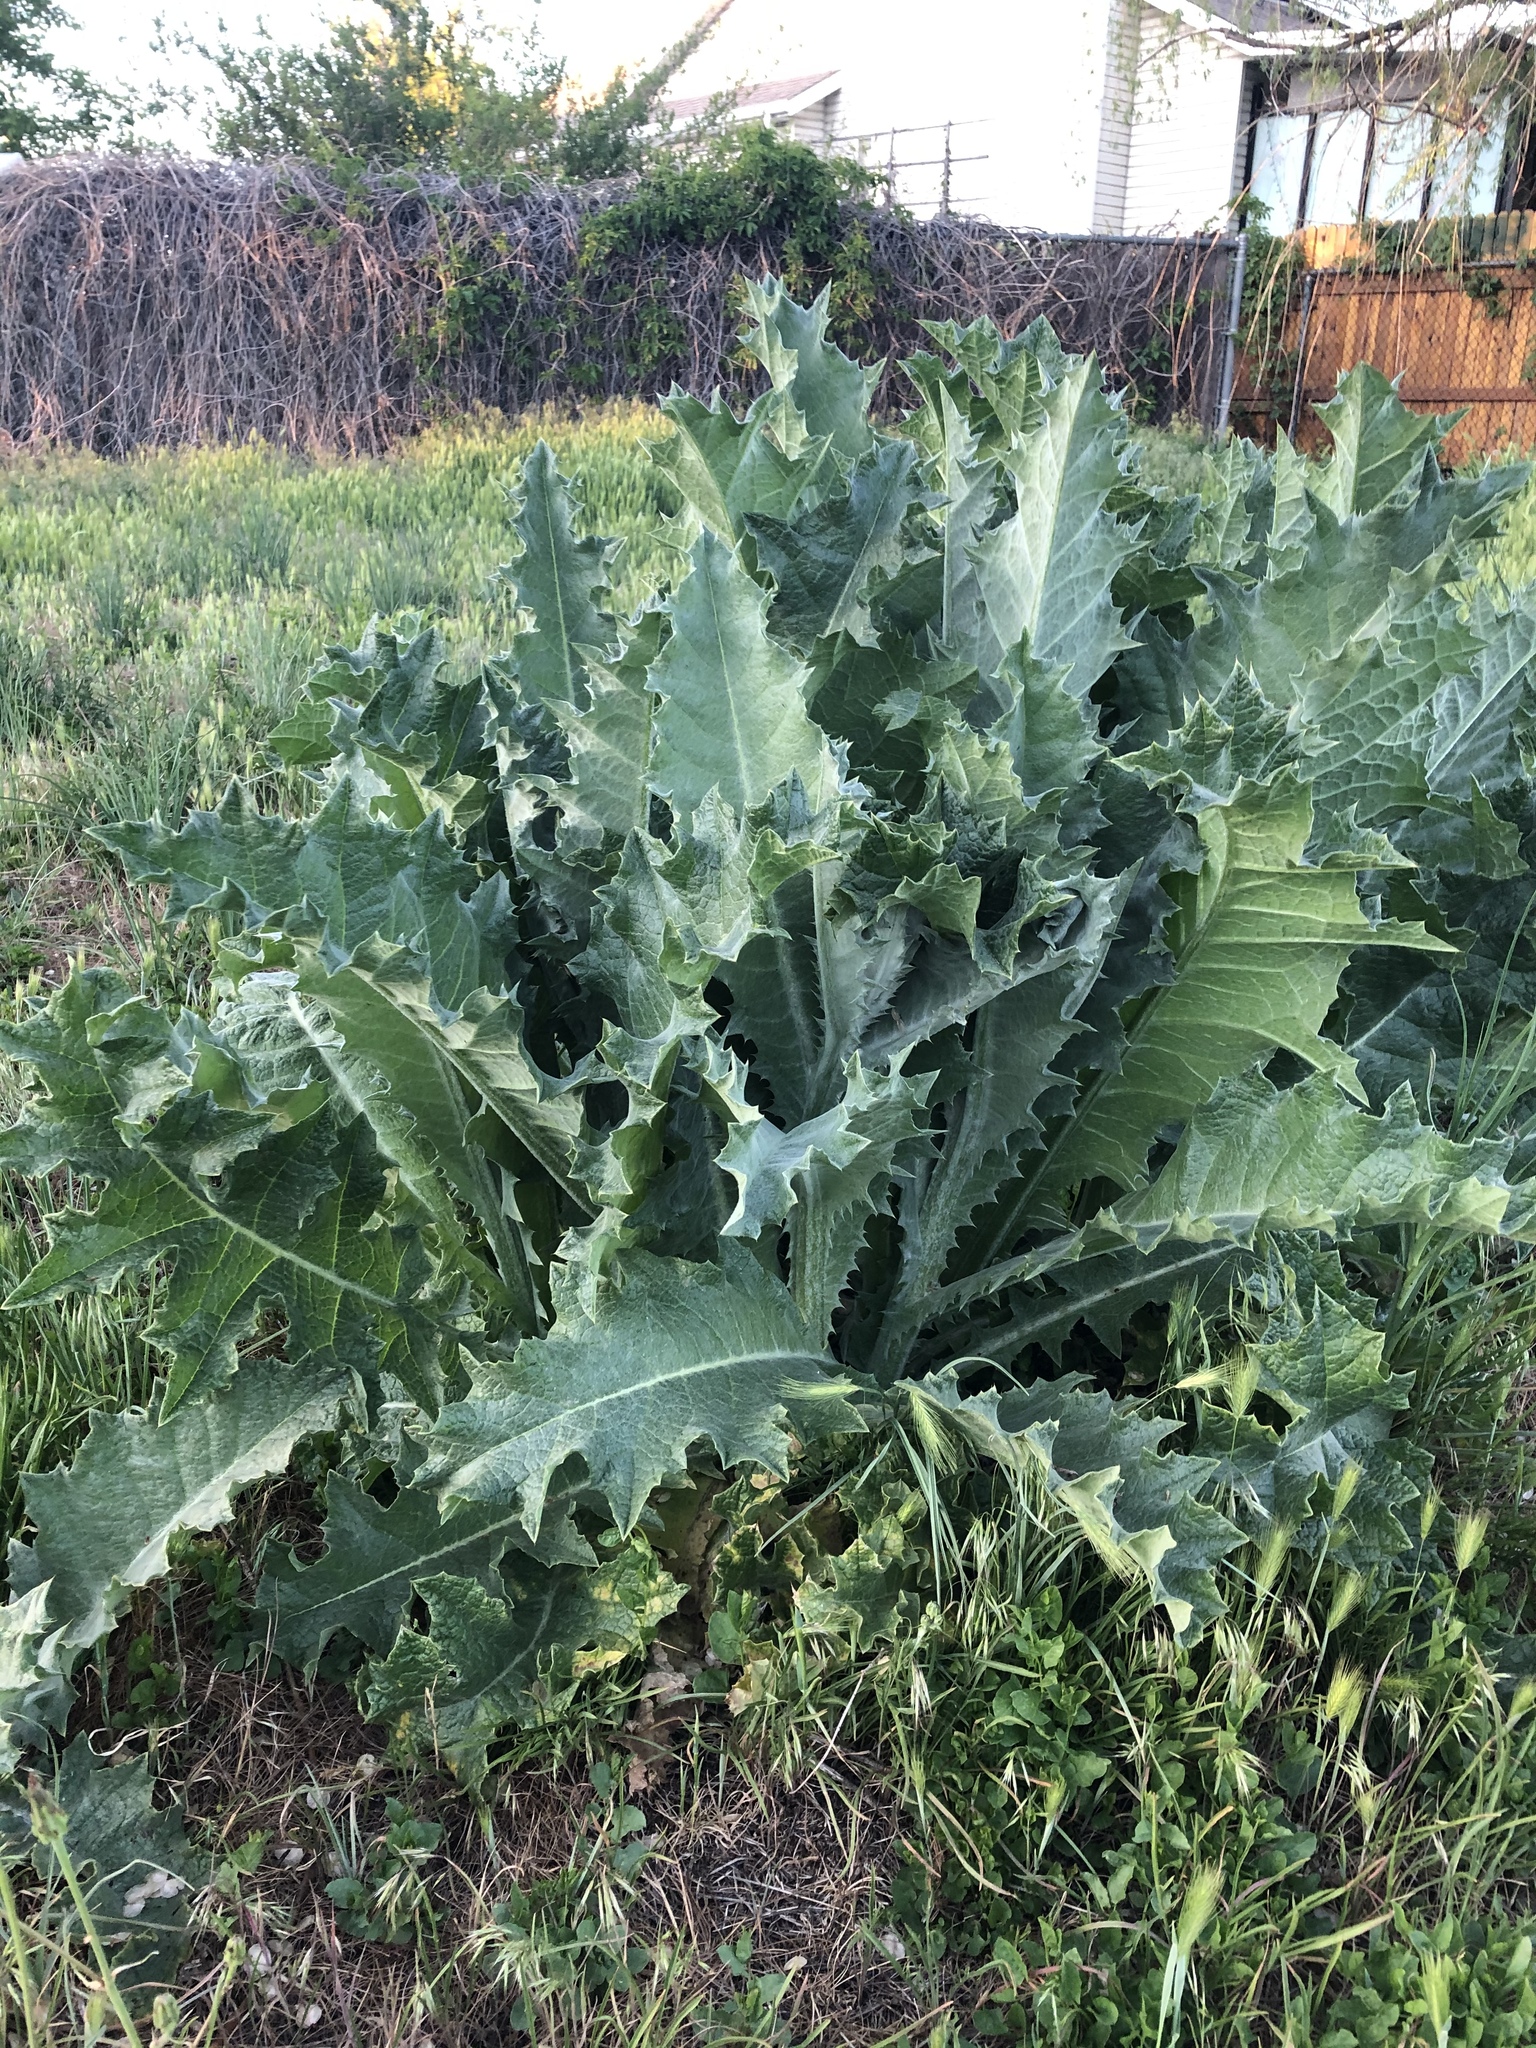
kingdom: Plantae
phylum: Tracheophyta
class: Magnoliopsida
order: Asterales
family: Asteraceae
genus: Onopordum
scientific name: Onopordum acanthium
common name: Scotch thistle
